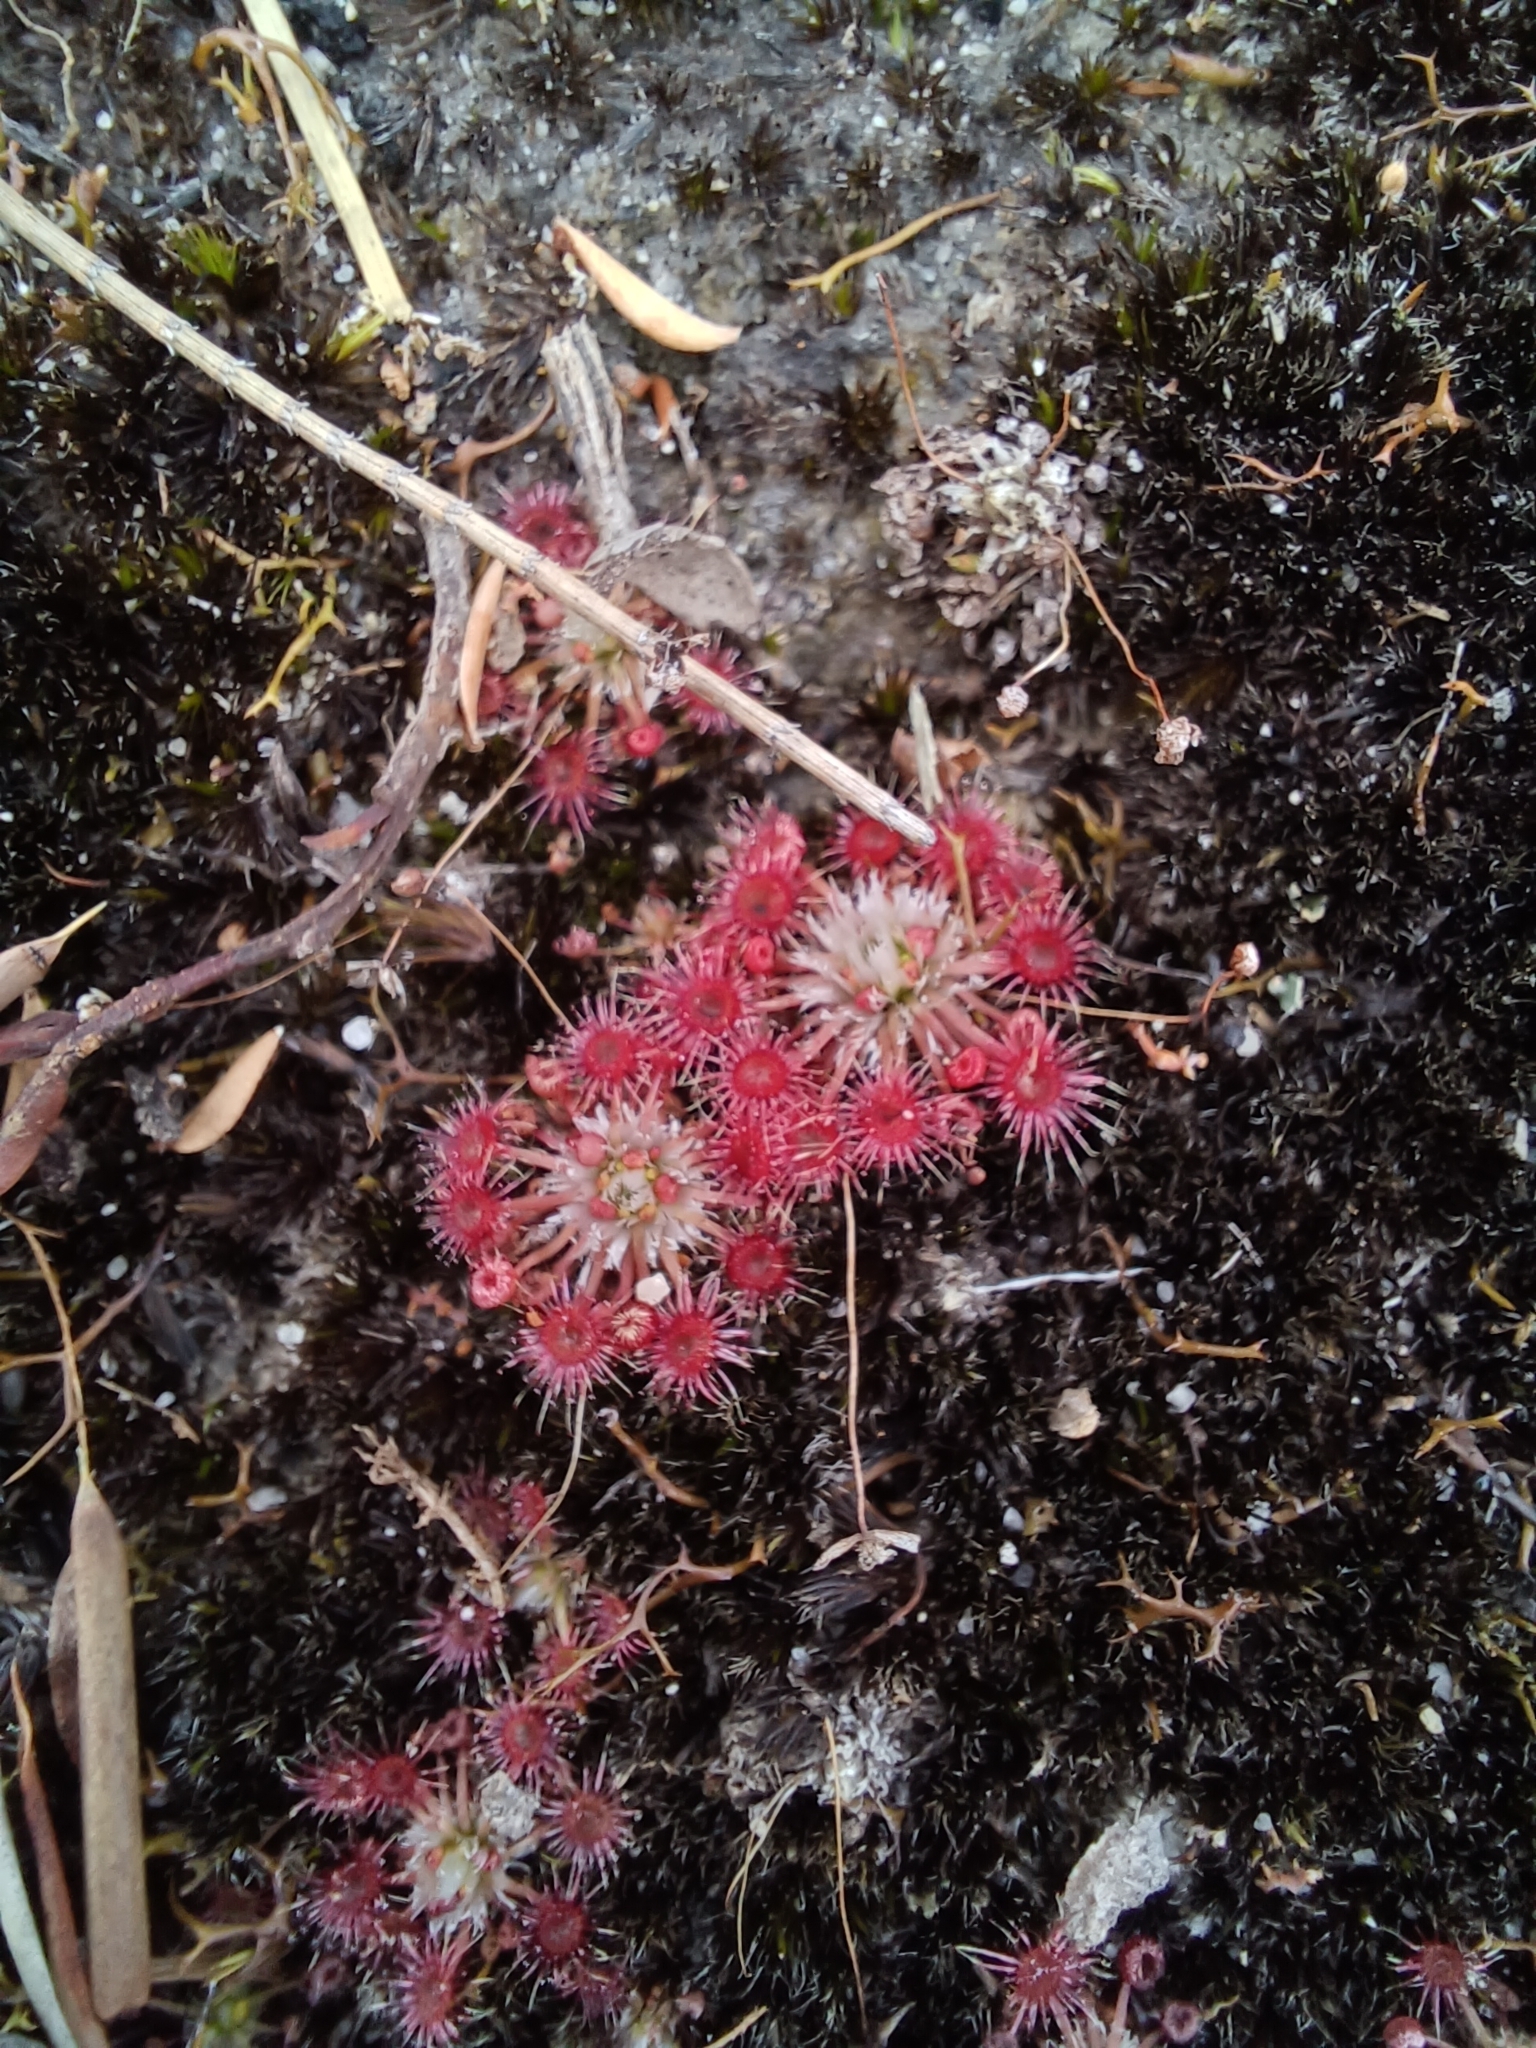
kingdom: Plantae
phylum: Tracheophyta
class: Magnoliopsida
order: Caryophyllales
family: Droseraceae
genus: Drosera
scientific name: Drosera pygmaea
